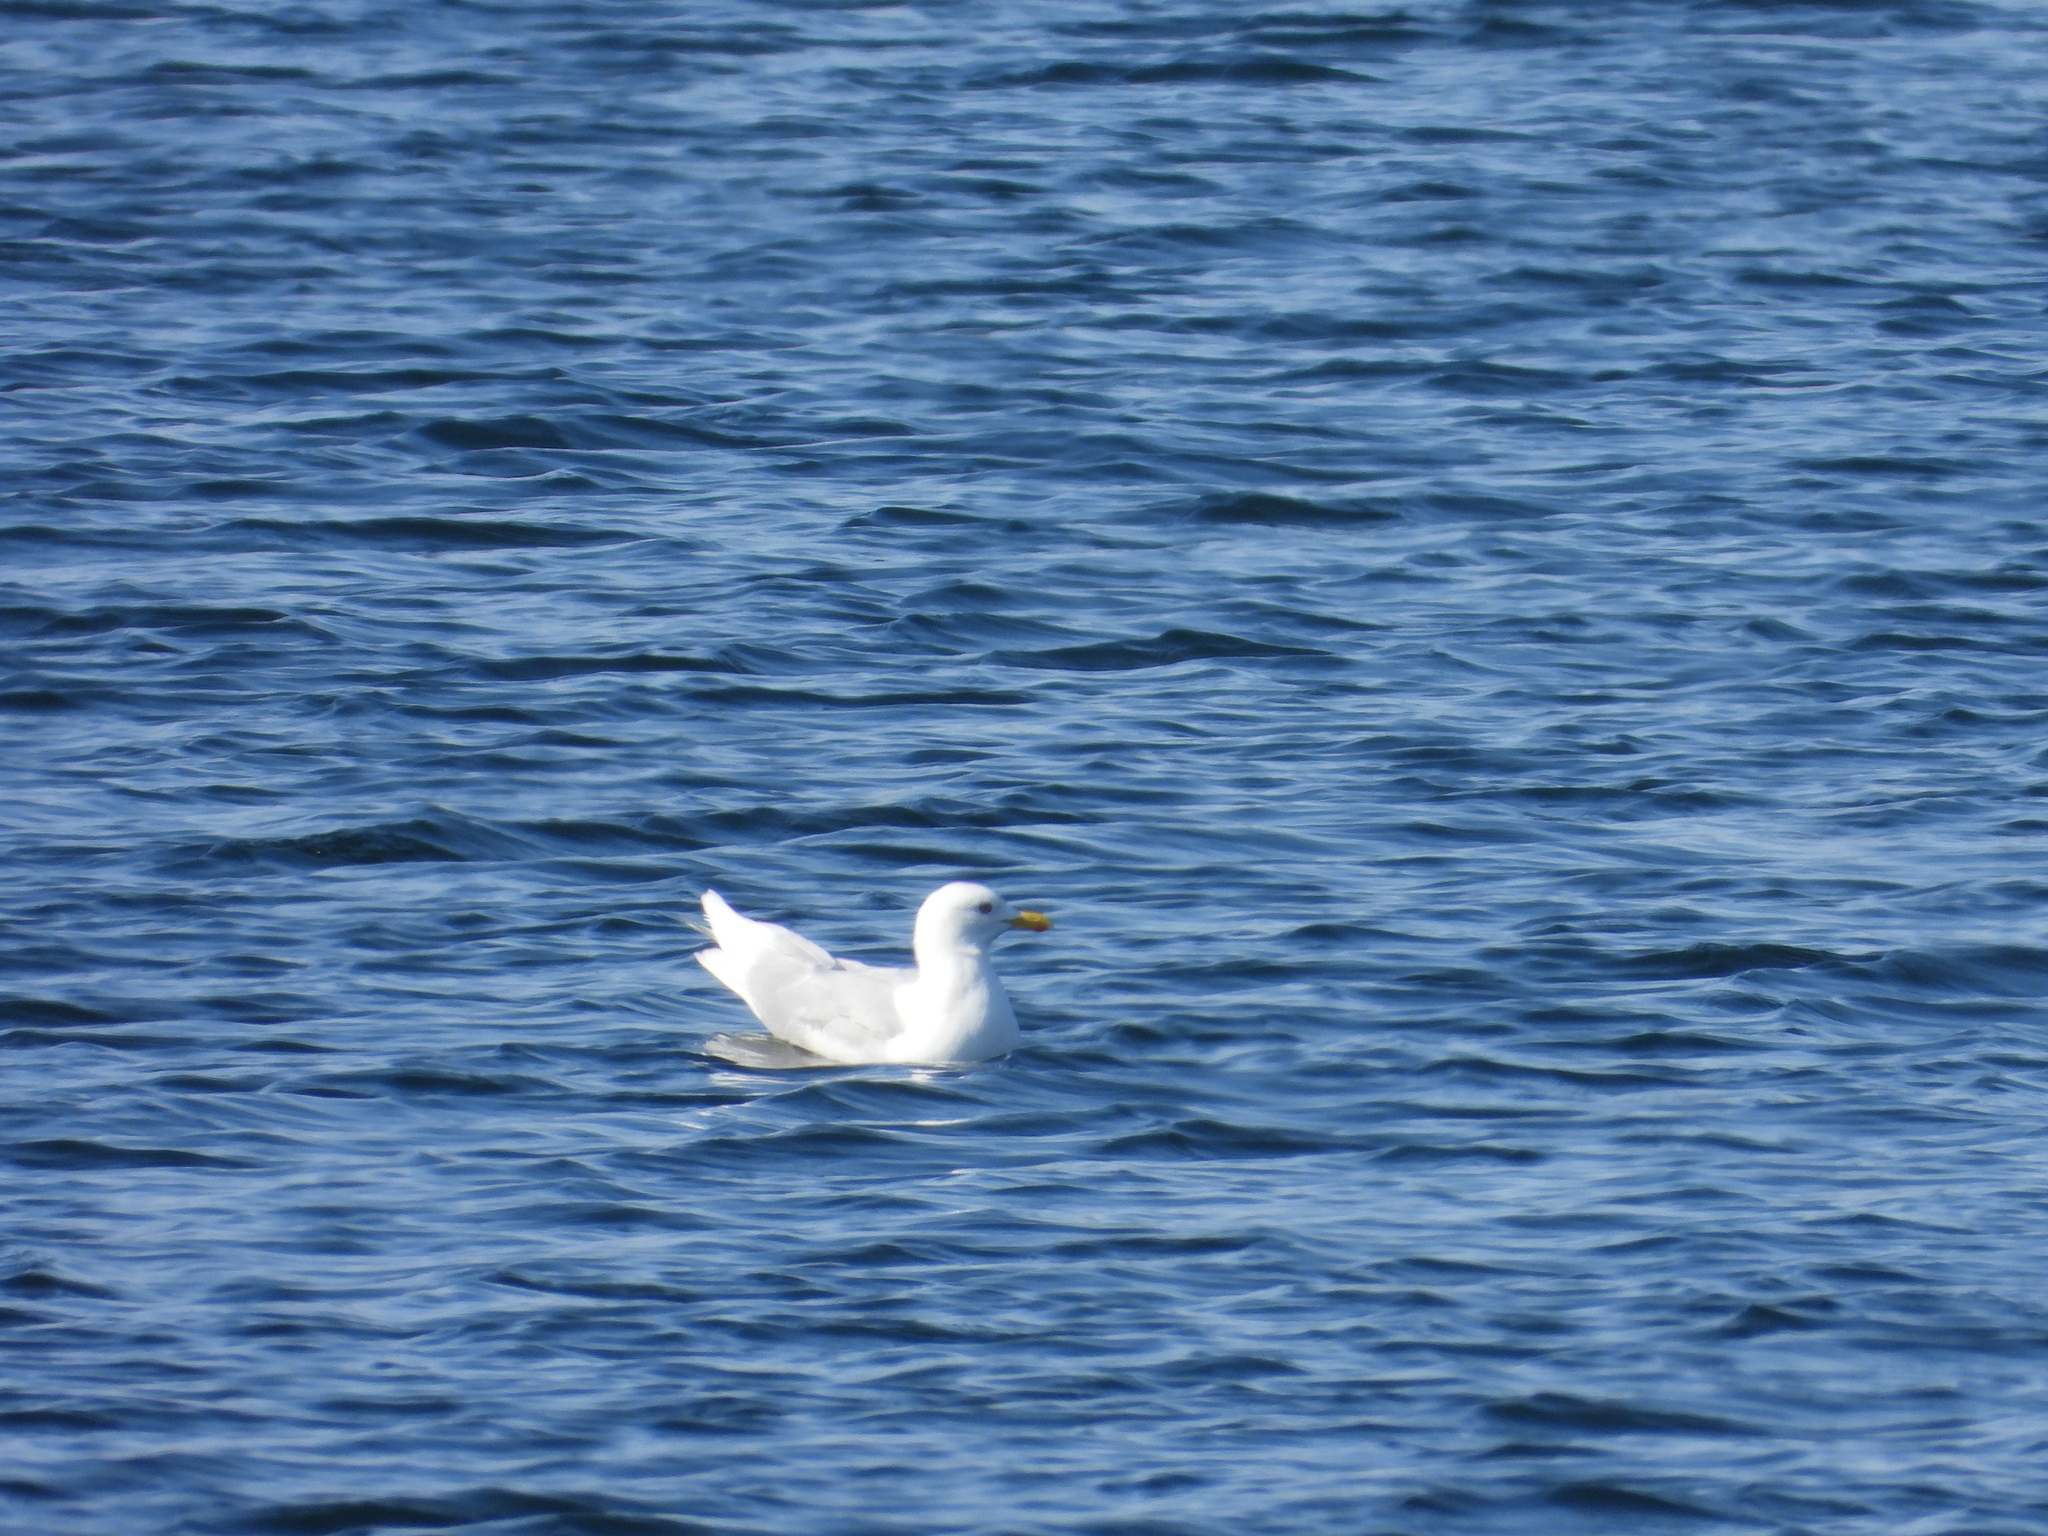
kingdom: Animalia
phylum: Chordata
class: Aves
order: Charadriiformes
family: Laridae
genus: Larus
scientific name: Larus glaucoides
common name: Iceland gull
